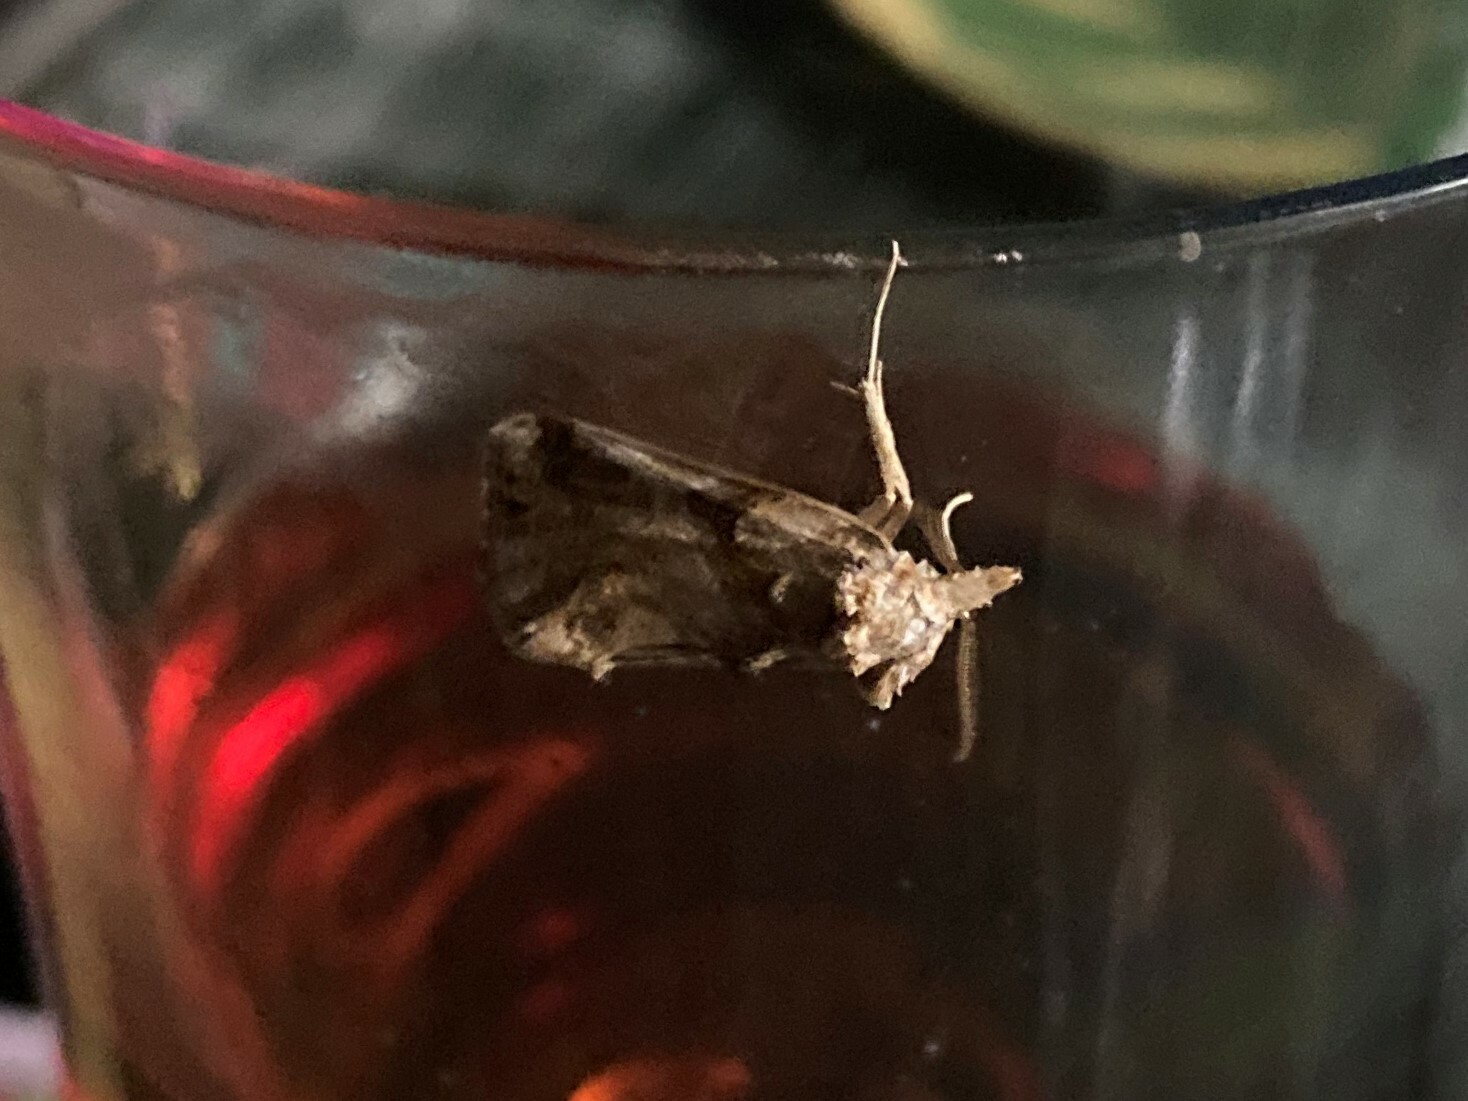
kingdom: Animalia
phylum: Arthropoda
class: Insecta
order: Lepidoptera
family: Erebidae
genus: Plusiodonta
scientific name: Plusiodonta compressipalpis
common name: Moonseed moth
